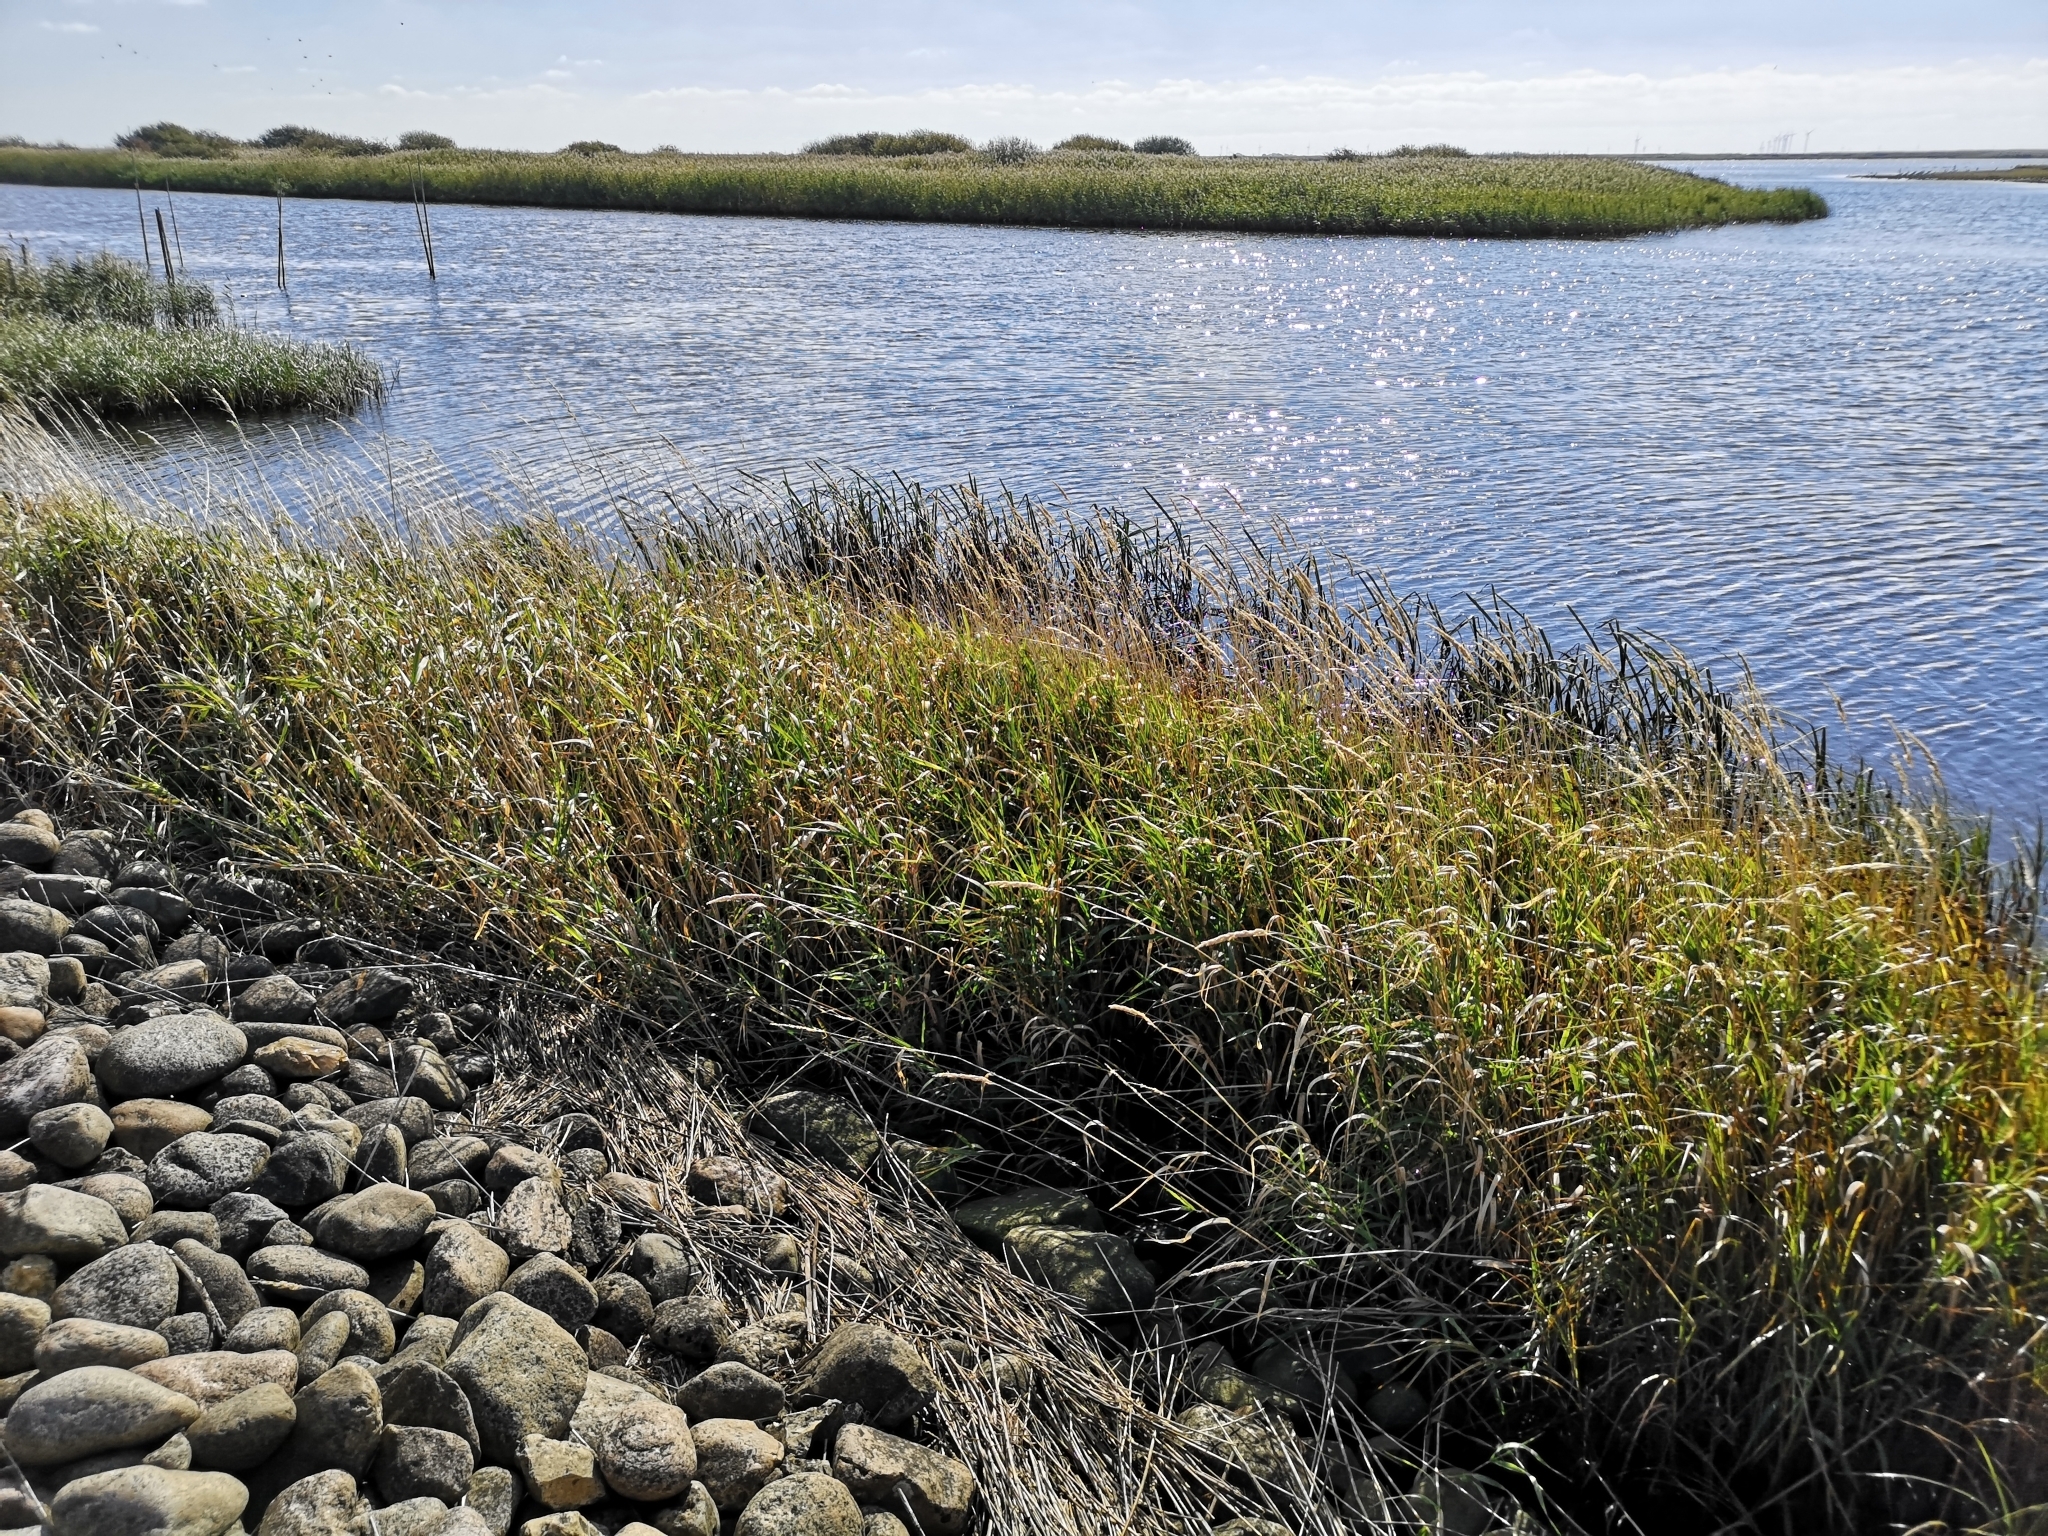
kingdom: Plantae
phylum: Tracheophyta
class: Liliopsida
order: Poales
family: Poaceae
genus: Phragmites
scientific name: Phragmites australis
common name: Common reed
